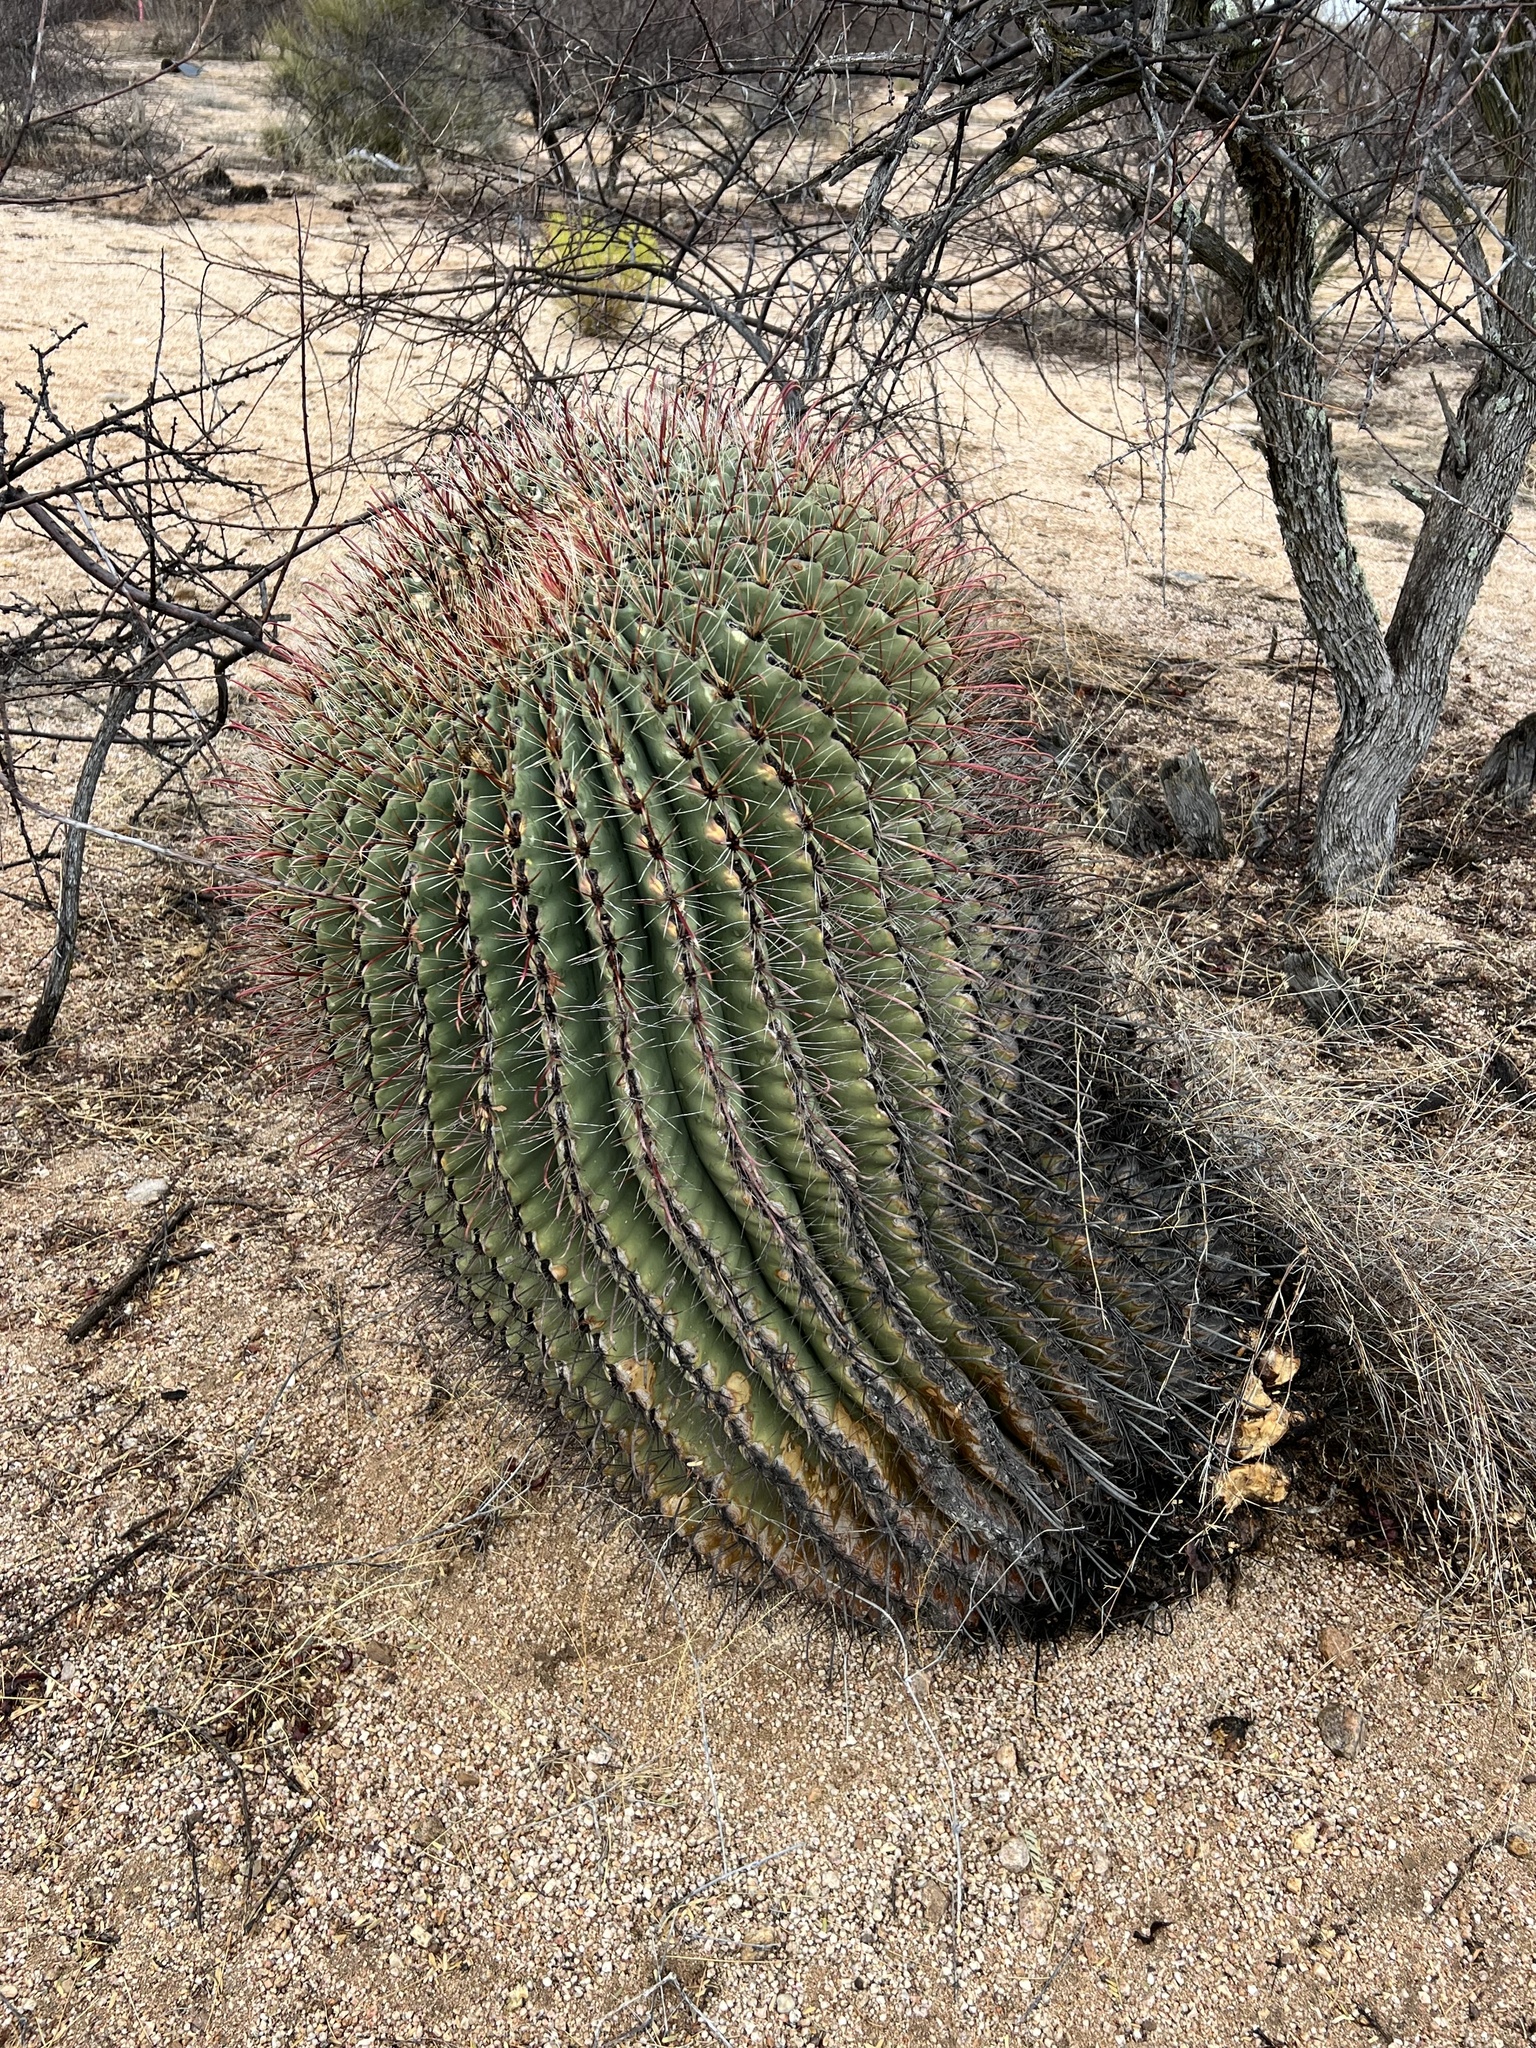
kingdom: Plantae
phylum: Tracheophyta
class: Magnoliopsida
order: Caryophyllales
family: Cactaceae
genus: Ferocactus
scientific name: Ferocactus wislizeni
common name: Candy barrel cactus
